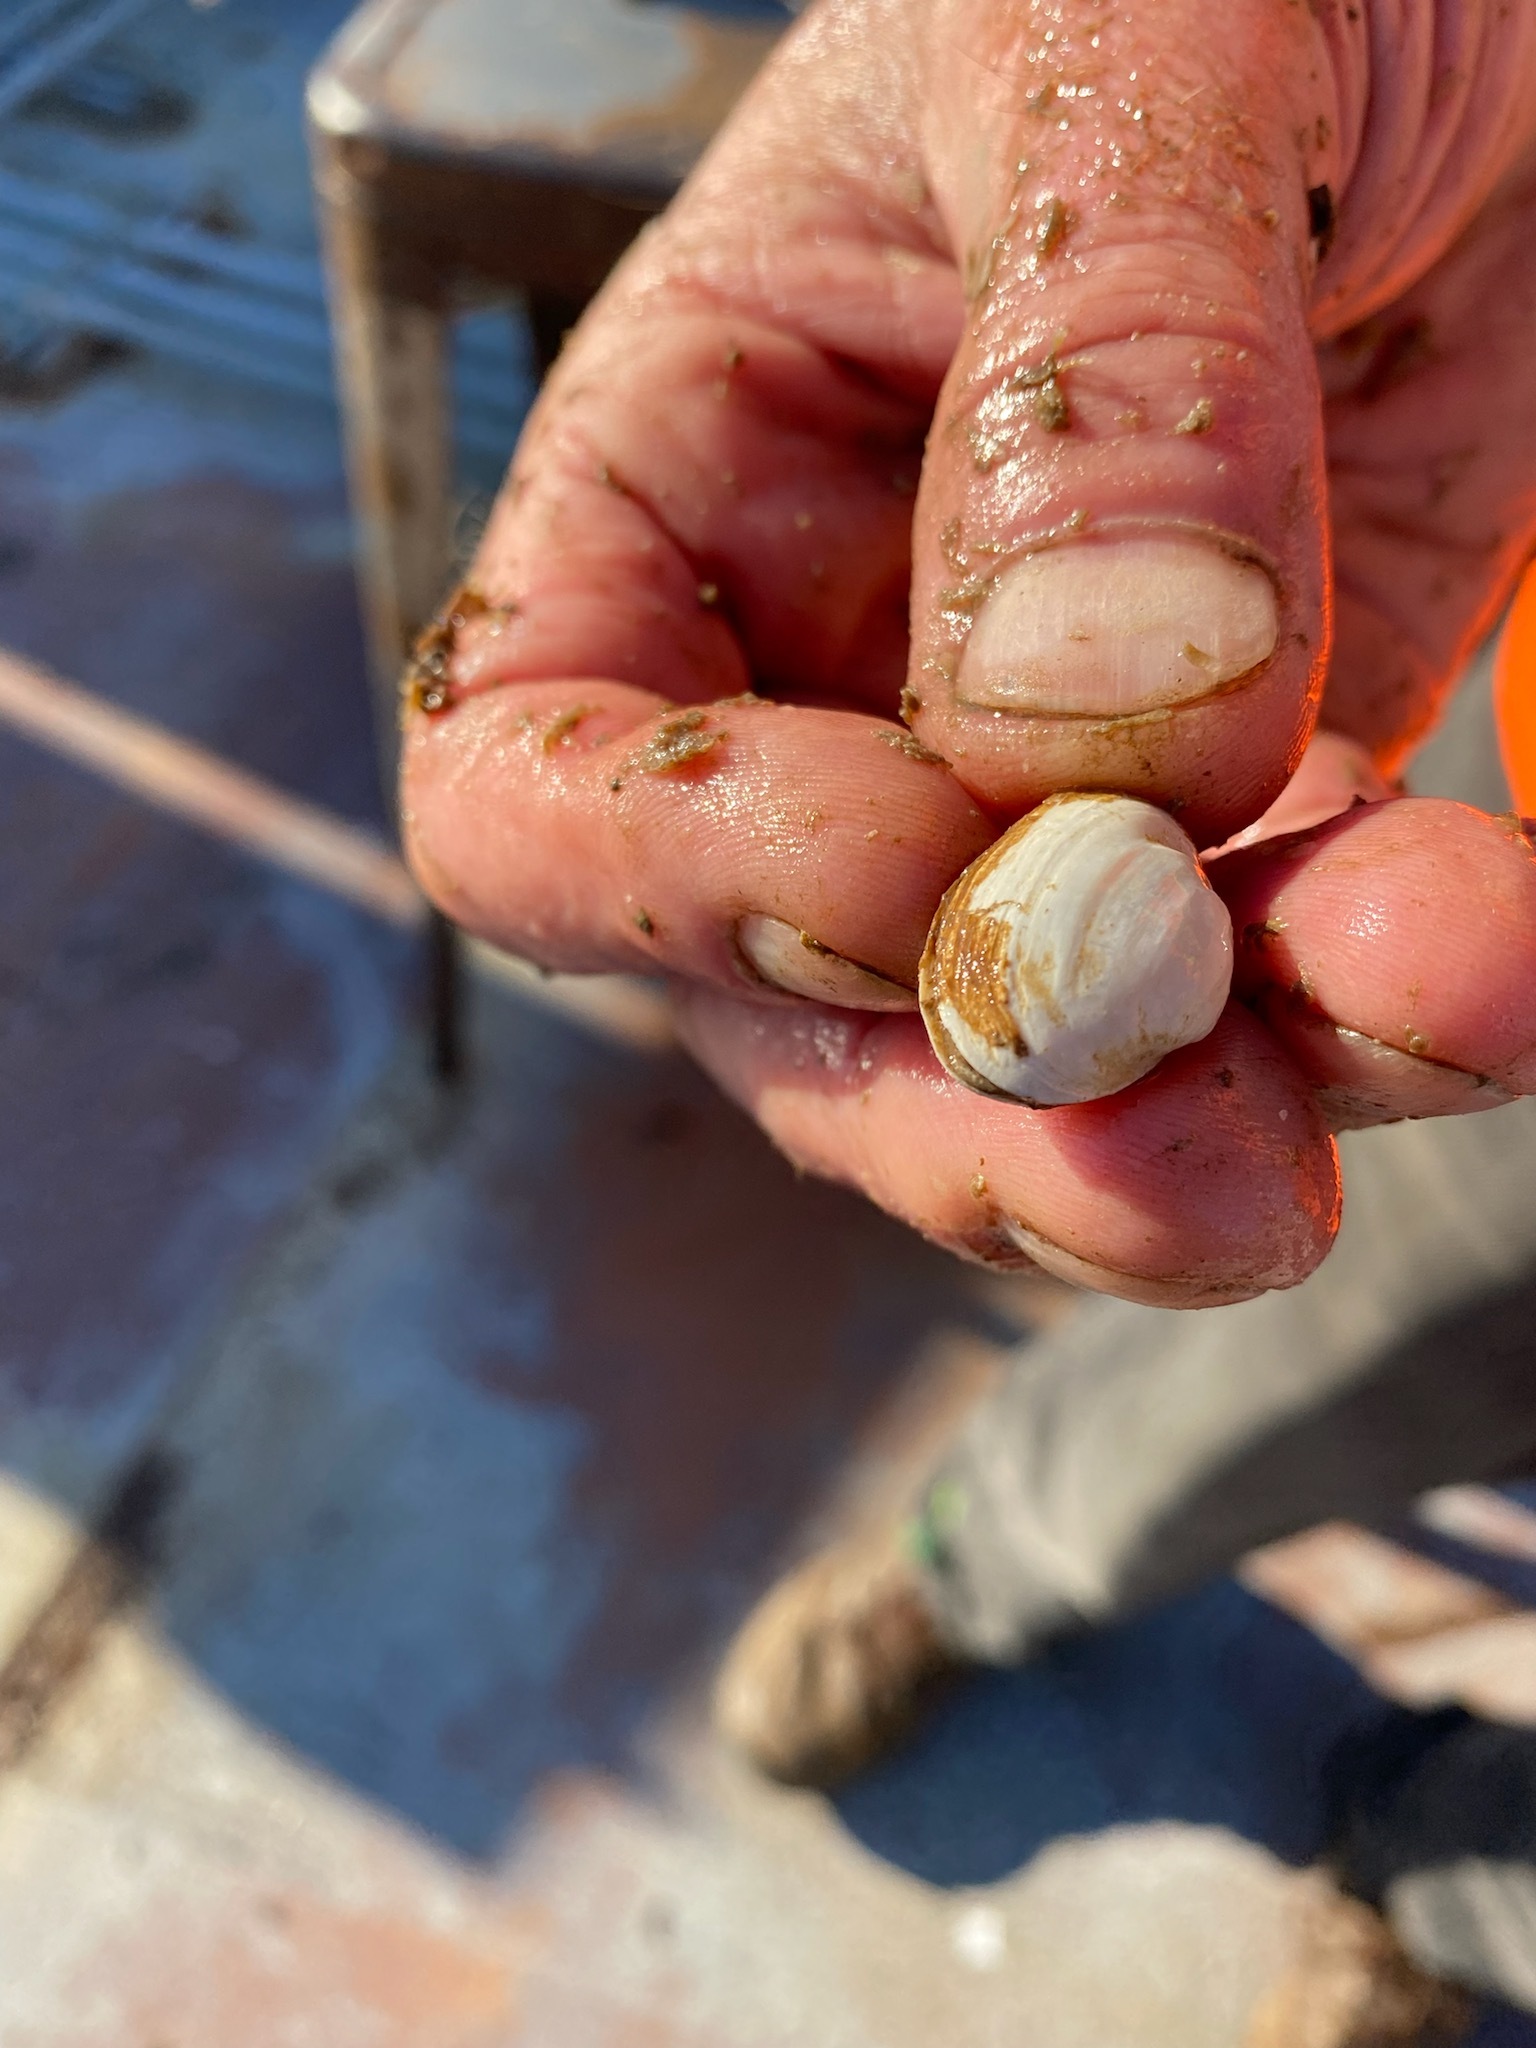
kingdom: Animalia
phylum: Mollusca
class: Bivalvia
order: Myida
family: Myidae
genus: Mya
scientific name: Mya arenaria
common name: Soft-shelled clam
